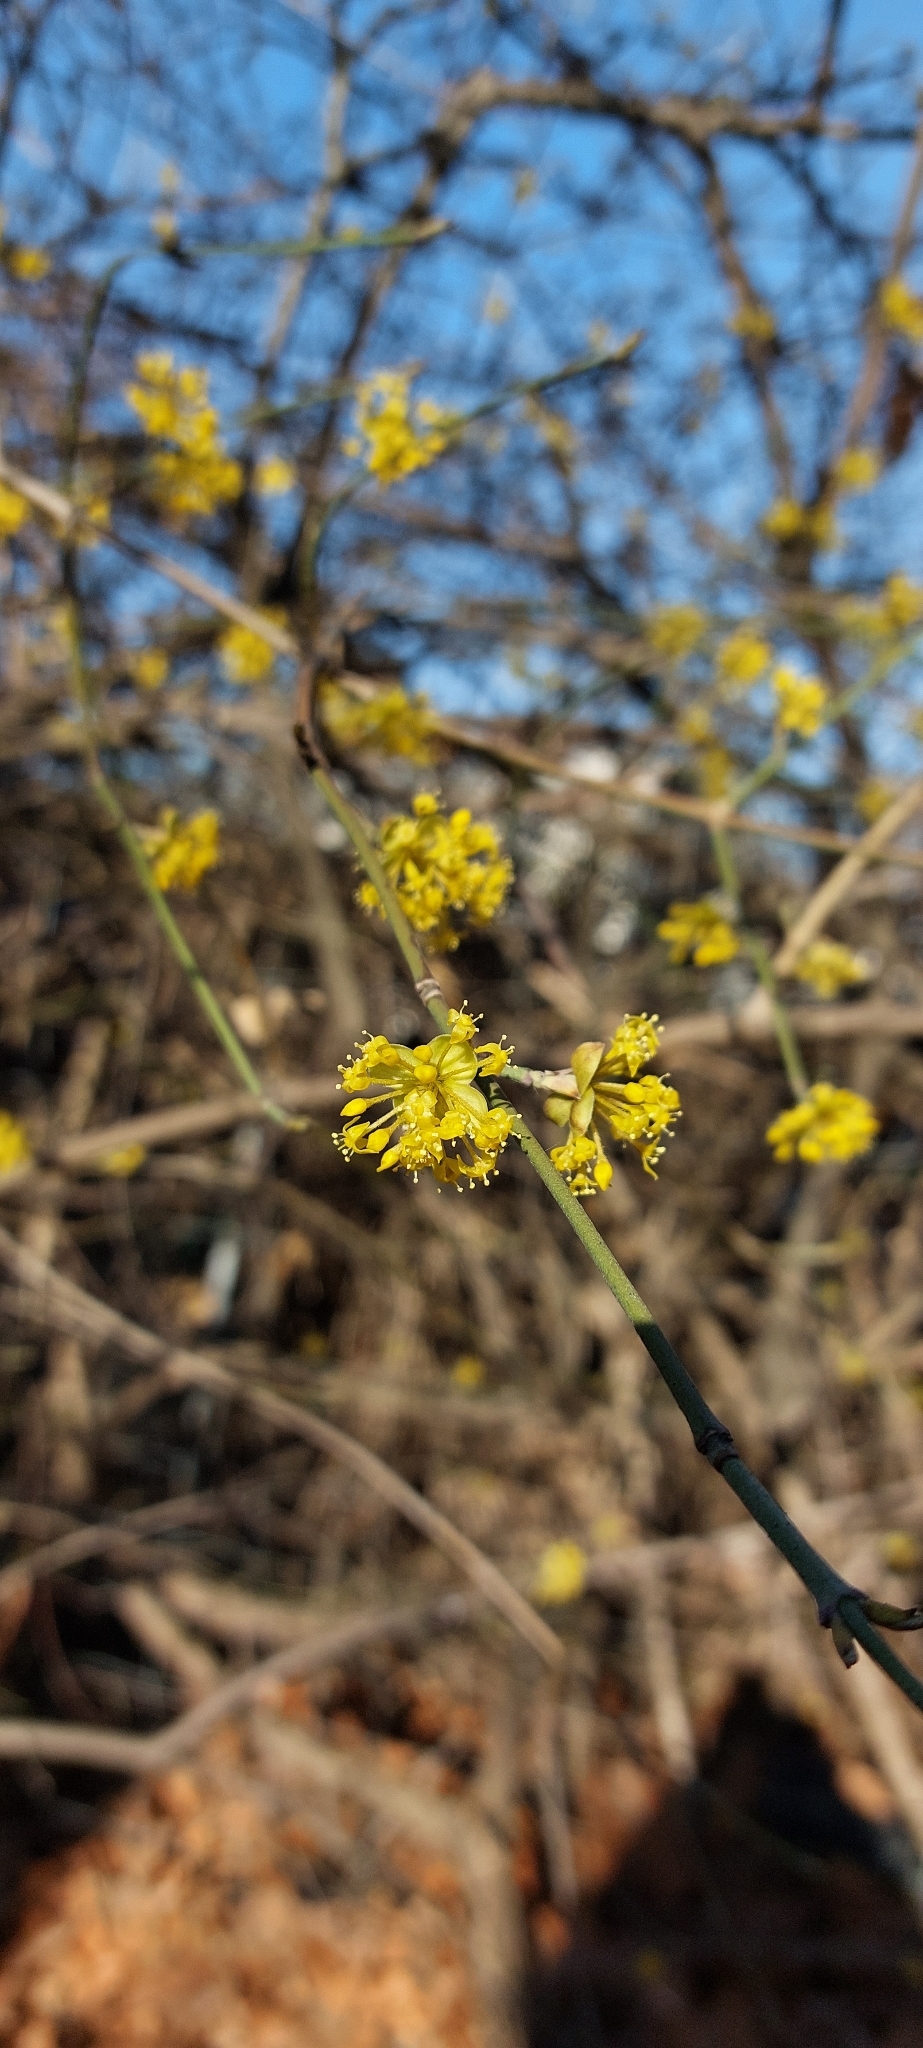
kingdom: Plantae
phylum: Tracheophyta
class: Magnoliopsida
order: Cornales
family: Cornaceae
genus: Cornus
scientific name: Cornus mas
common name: Cornelian-cherry
